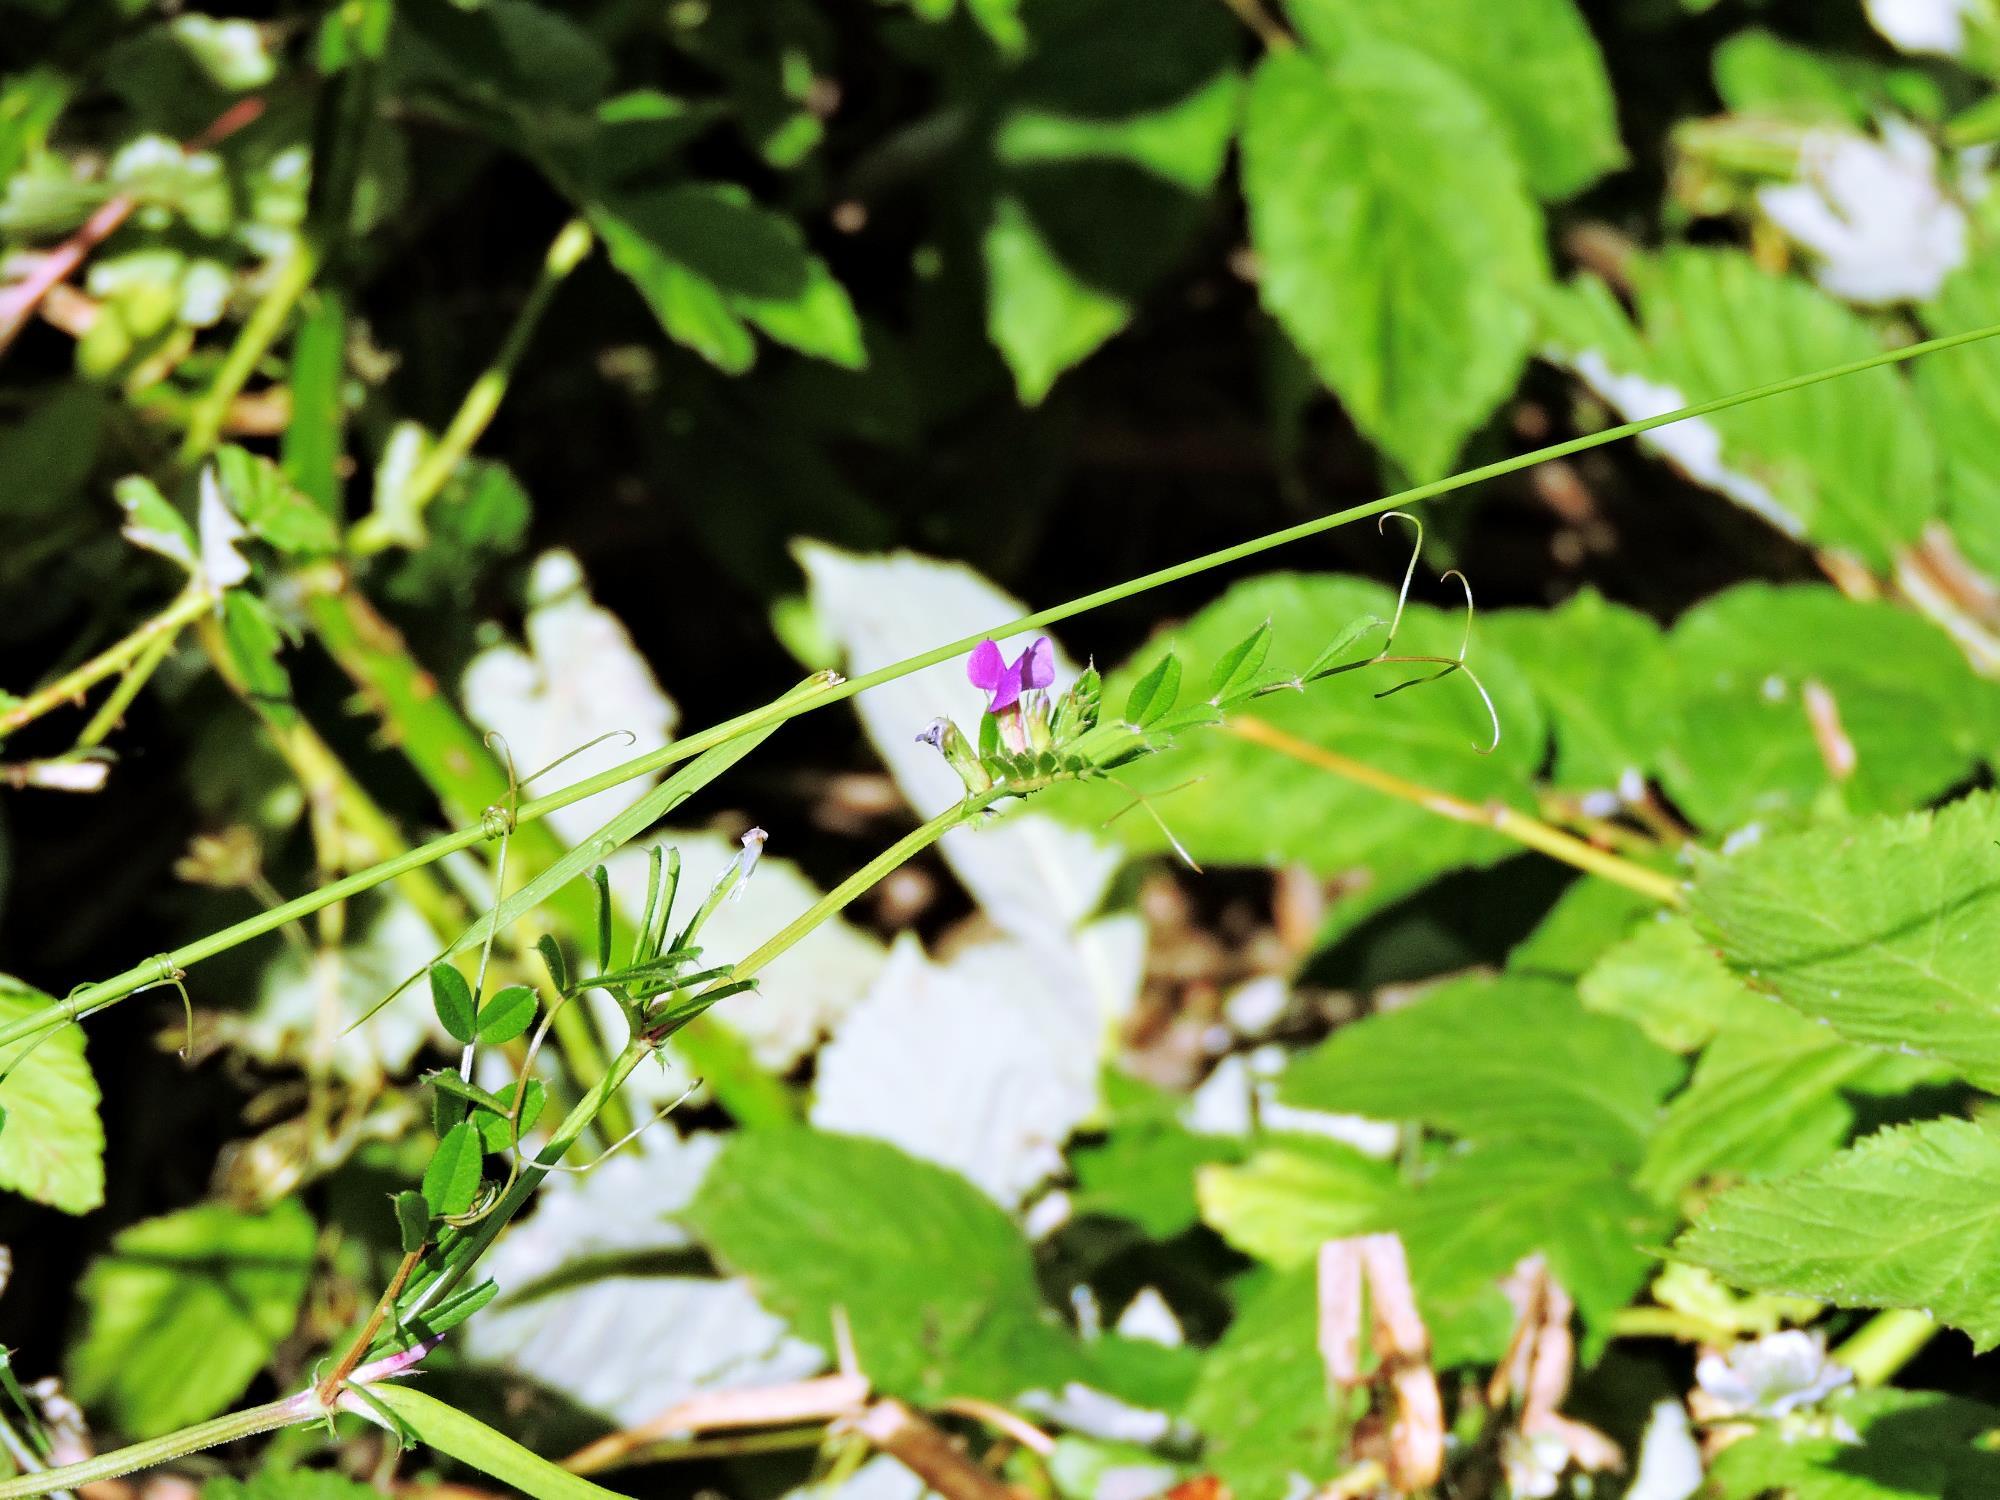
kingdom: Plantae
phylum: Tracheophyta
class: Magnoliopsida
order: Fabales
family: Fabaceae
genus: Vicia
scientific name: Vicia sativa
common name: Garden vetch
